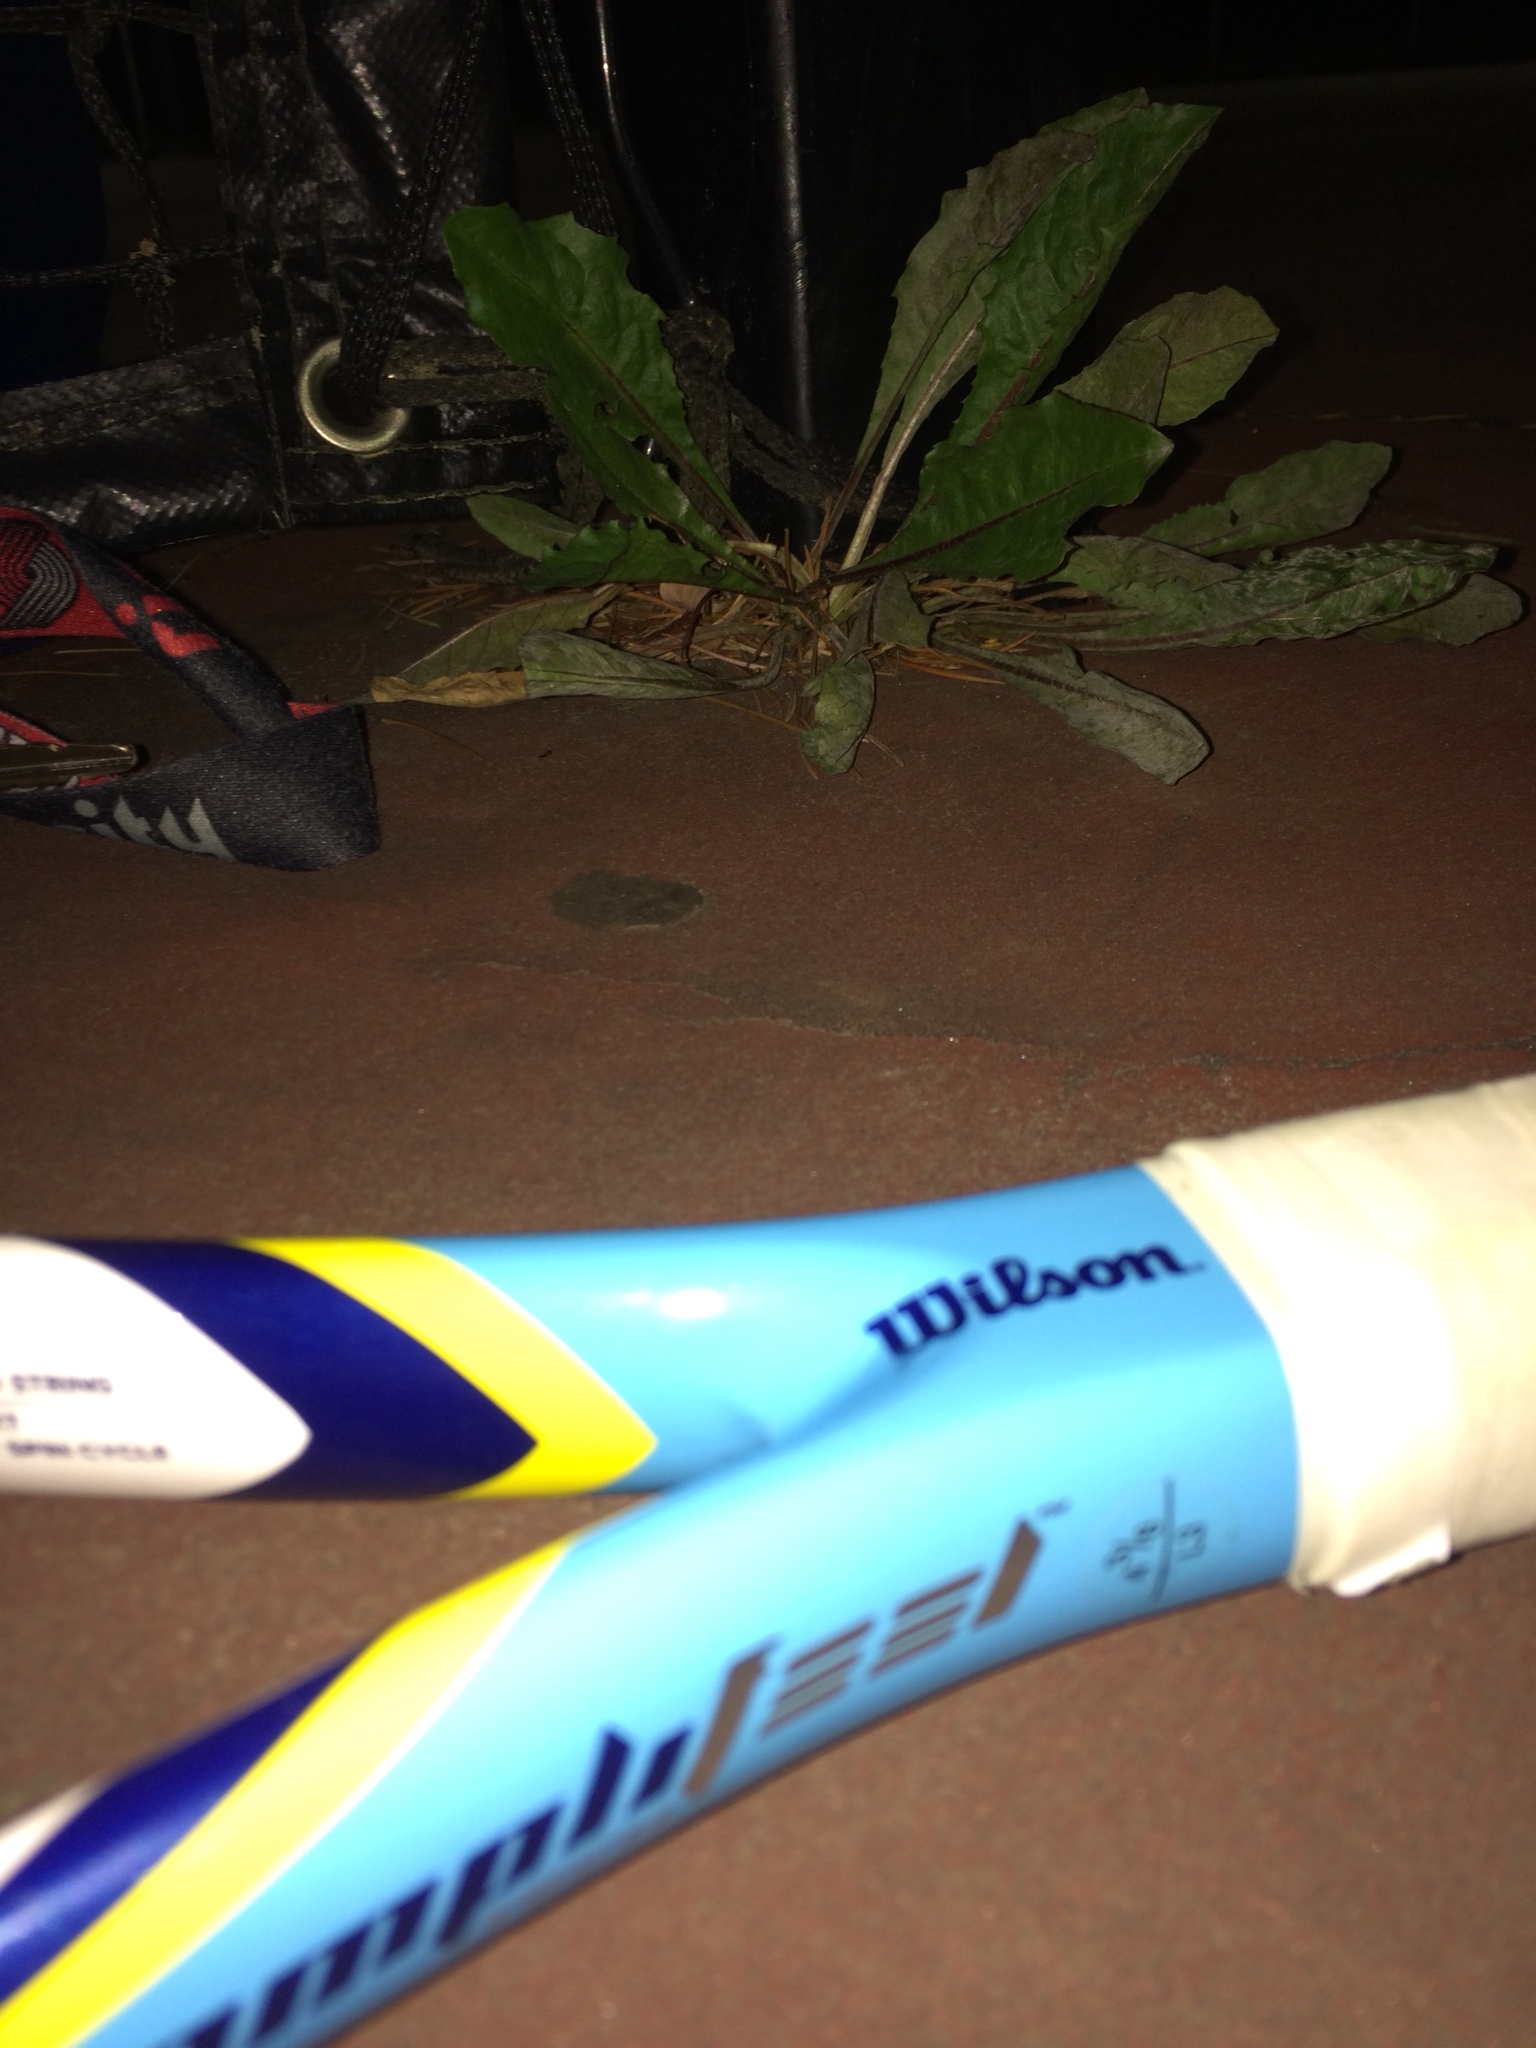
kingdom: Plantae
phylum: Tracheophyta
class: Magnoliopsida
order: Asterales
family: Asteraceae
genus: Taraxacum
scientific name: Taraxacum officinale
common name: Common dandelion
